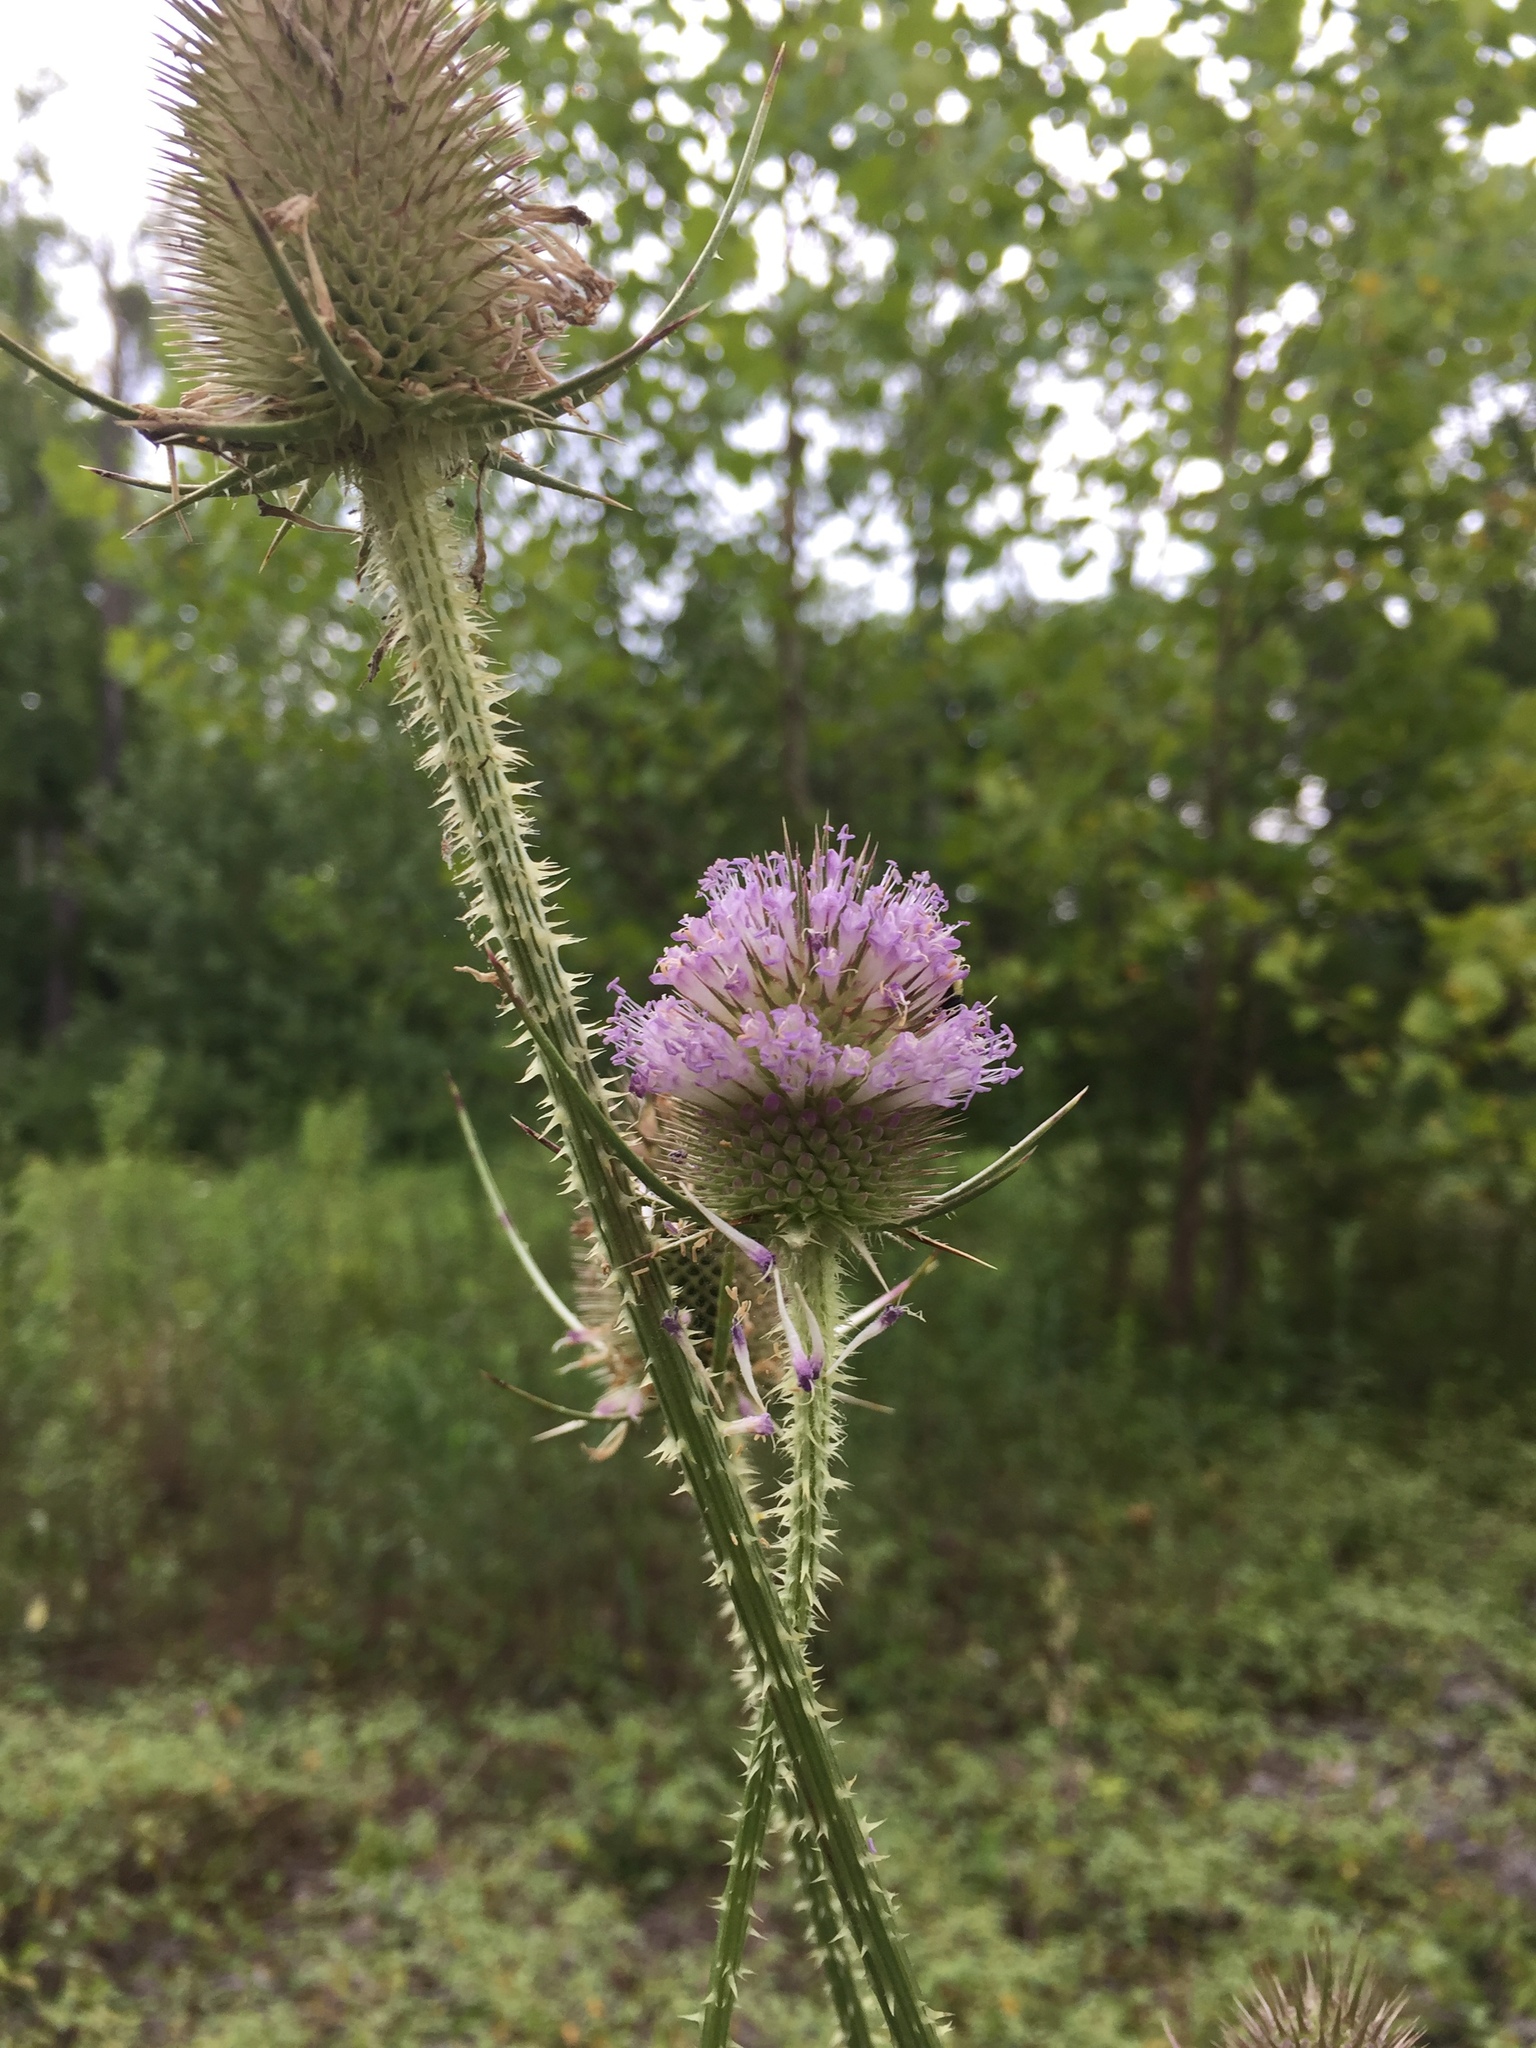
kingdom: Plantae
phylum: Tracheophyta
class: Magnoliopsida
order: Dipsacales
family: Caprifoliaceae
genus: Dipsacus
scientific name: Dipsacus fullonum
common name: Teasel
